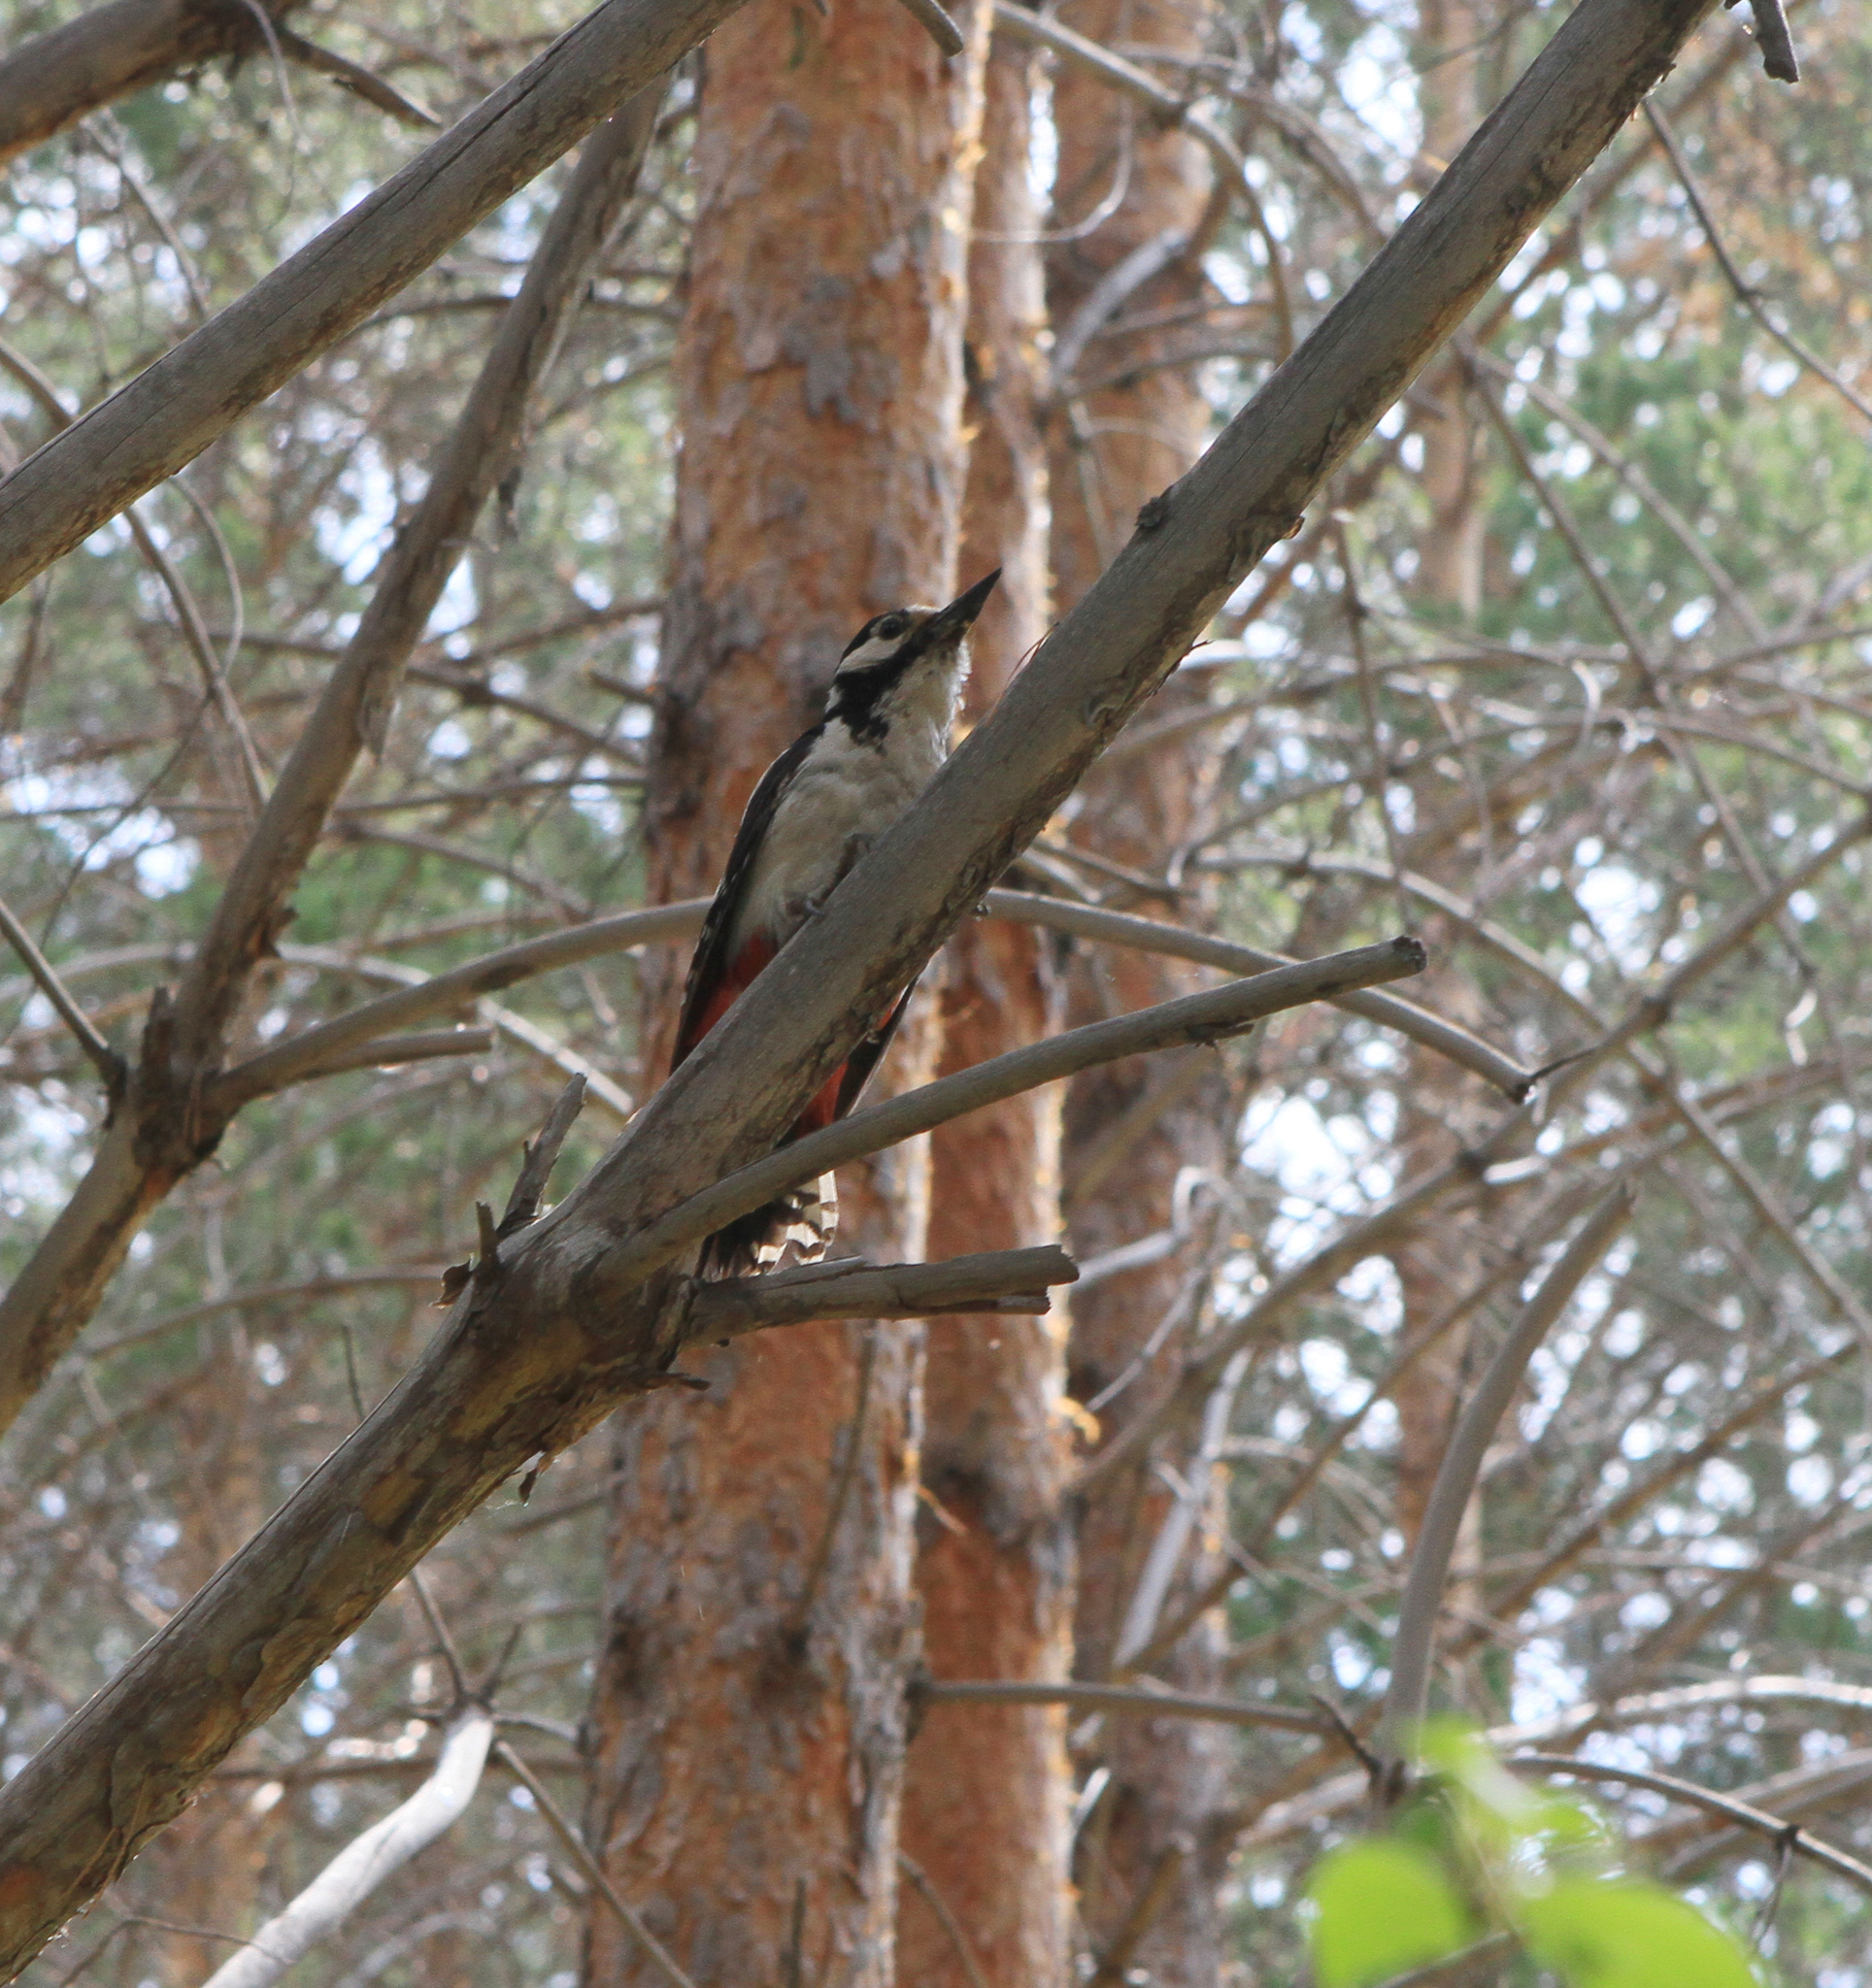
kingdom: Animalia
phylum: Chordata
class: Aves
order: Piciformes
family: Picidae
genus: Dendrocopos
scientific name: Dendrocopos major
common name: Great spotted woodpecker
